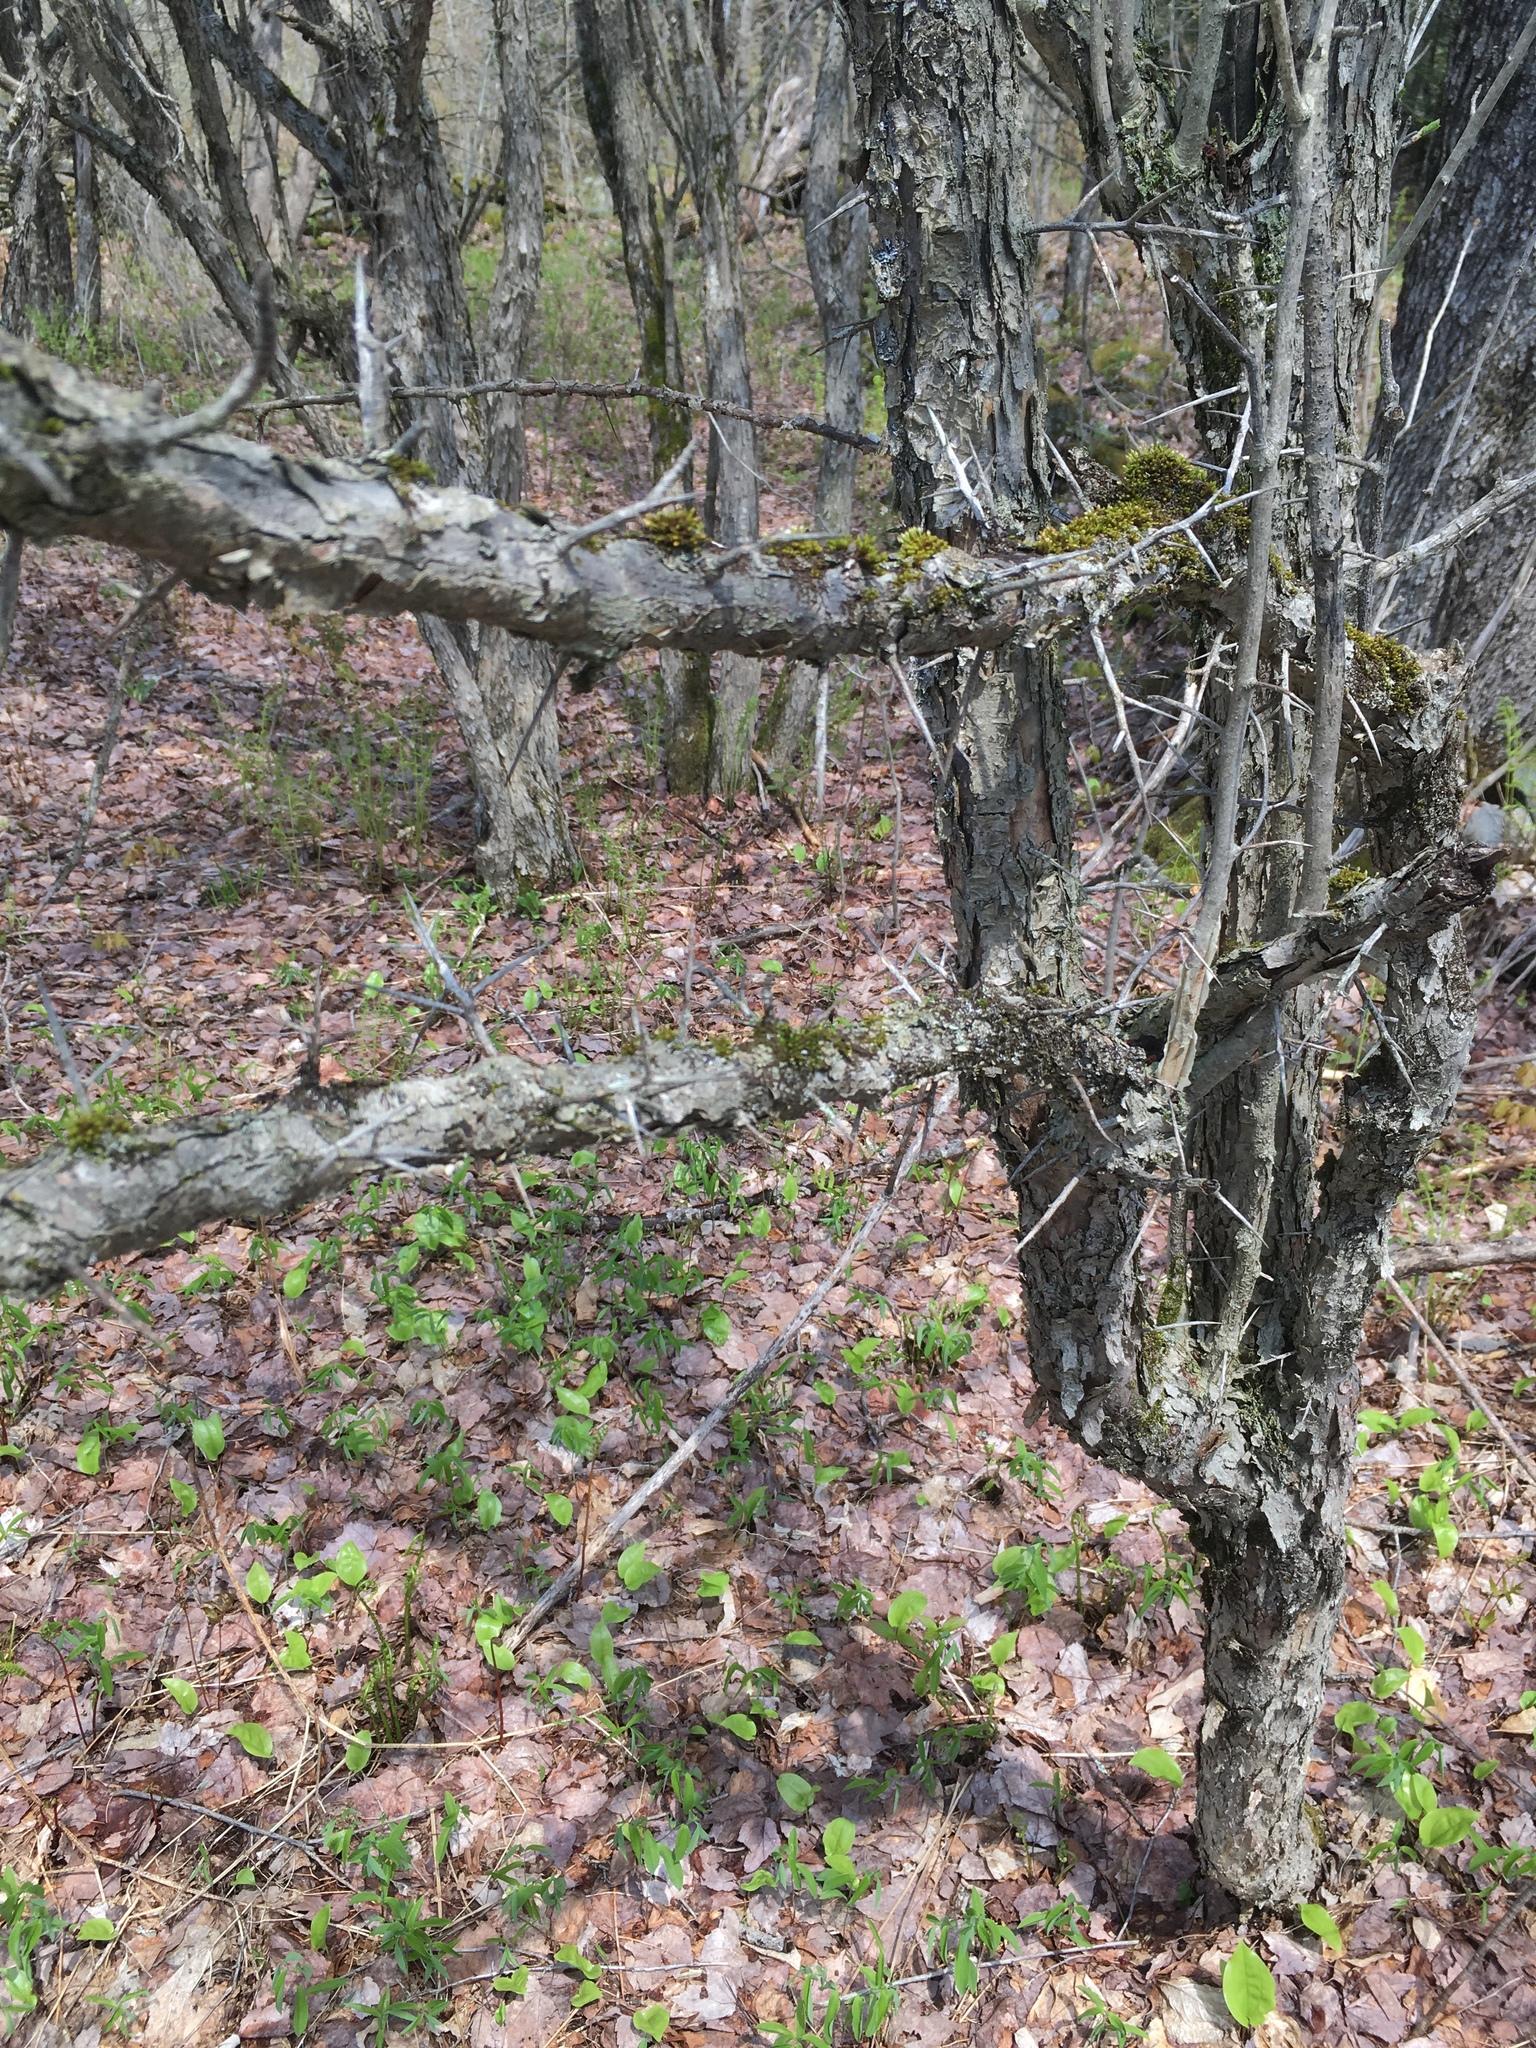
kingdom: Plantae
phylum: Tracheophyta
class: Magnoliopsida
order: Rosales
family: Rosaceae
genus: Crataegus
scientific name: Crataegus
